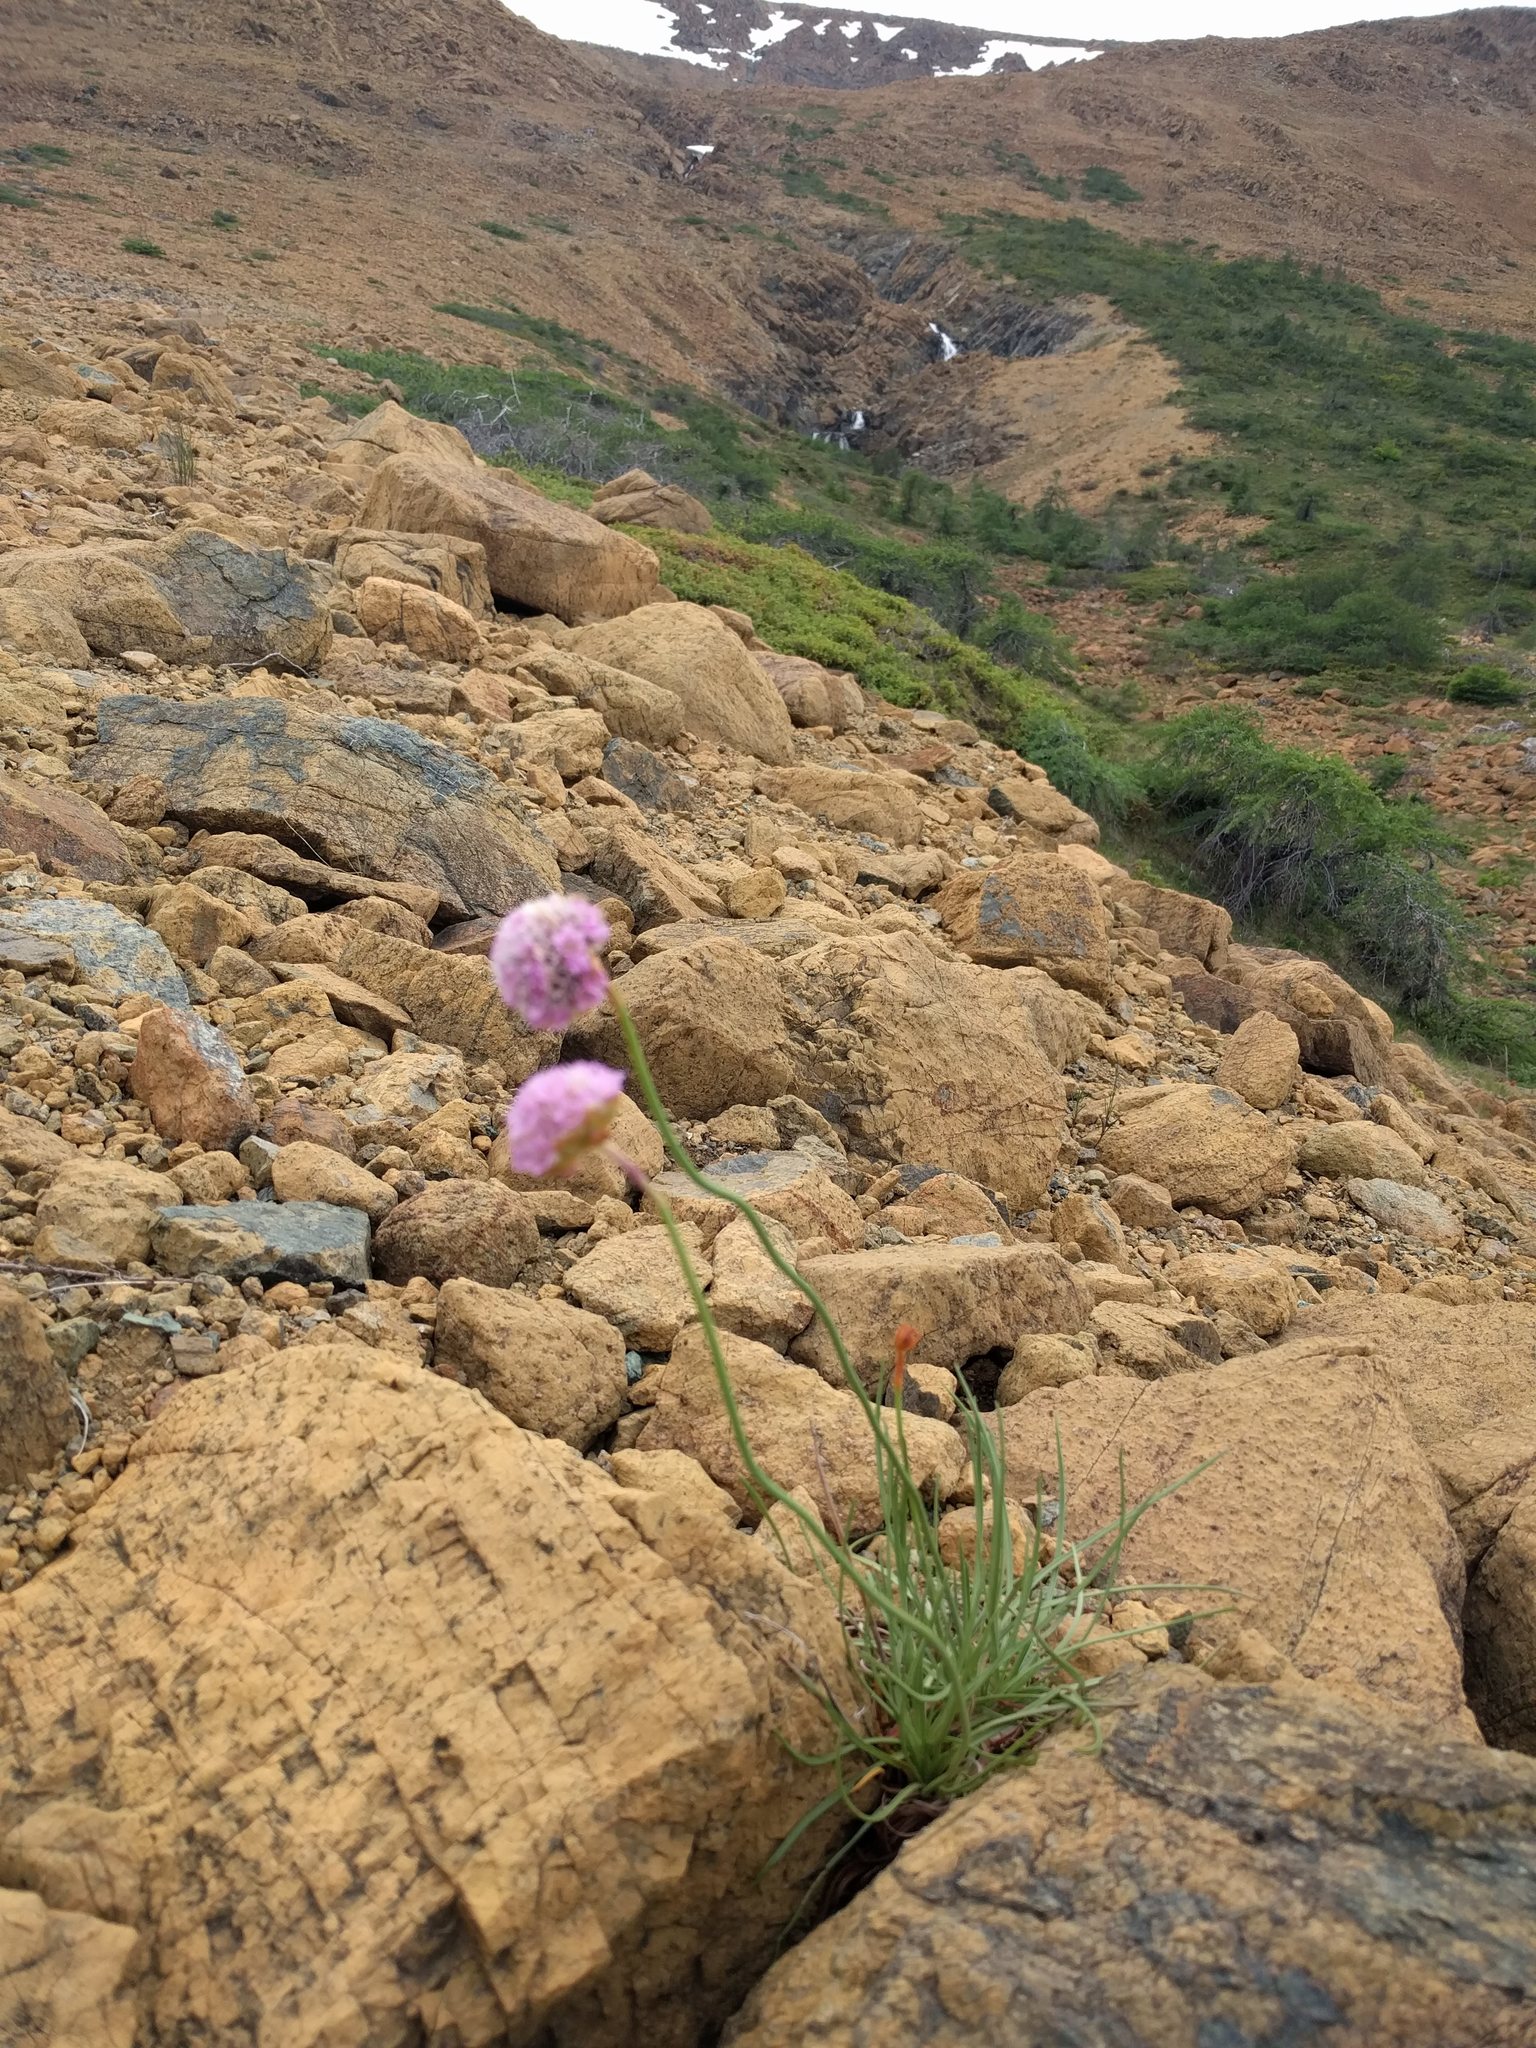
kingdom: Plantae
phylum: Tracheophyta
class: Magnoliopsida
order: Caryophyllales
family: Plumbaginaceae
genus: Armeria
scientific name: Armeria maritima
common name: Thrift
